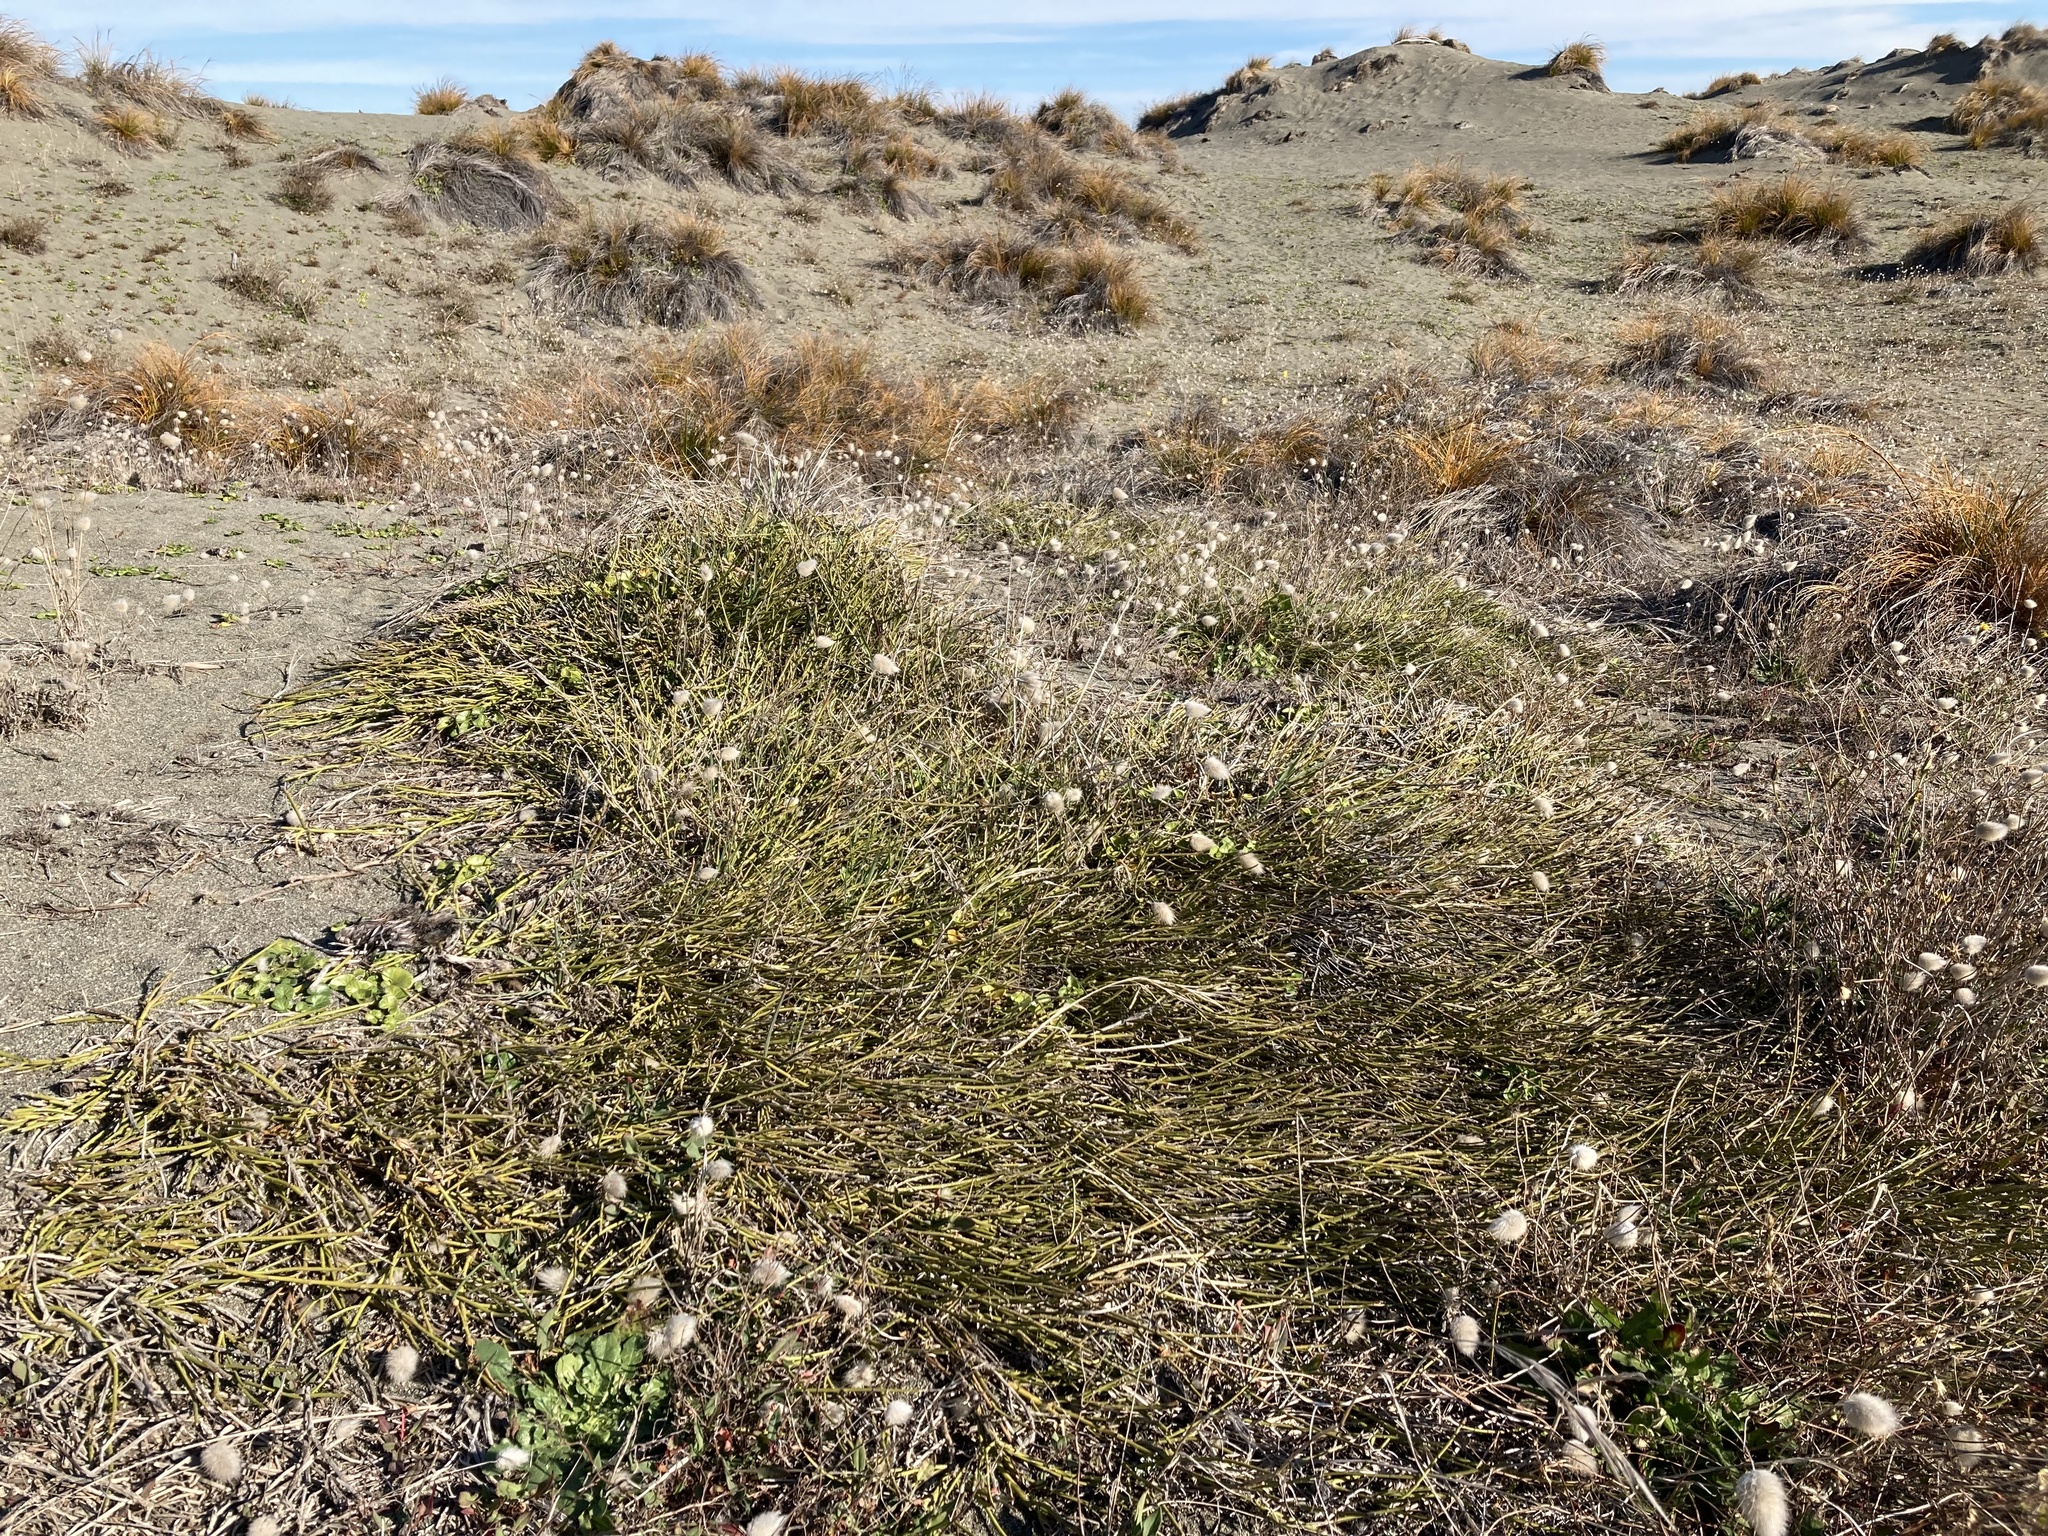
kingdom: Plantae
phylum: Tracheophyta
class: Magnoliopsida
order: Fabales
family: Fabaceae
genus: Carmichaelia
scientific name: Carmichaelia appressa
